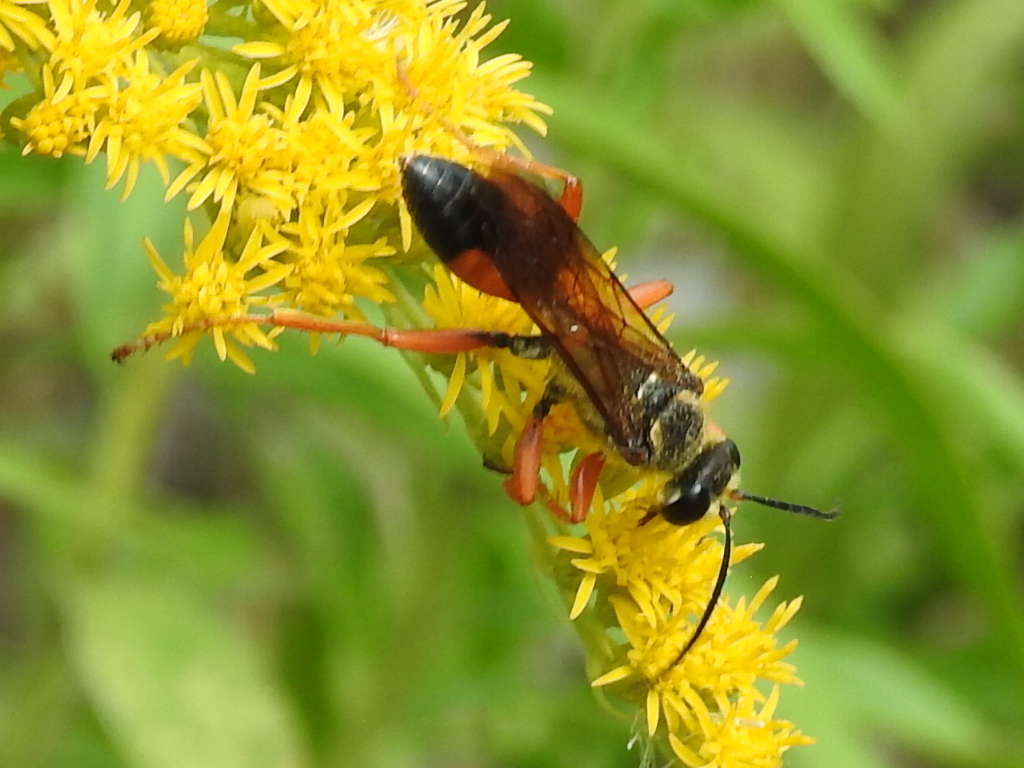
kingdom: Animalia
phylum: Arthropoda
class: Insecta
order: Hymenoptera
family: Sphecidae
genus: Sphex
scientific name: Sphex ichneumoneus
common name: Great golden digger wasp
